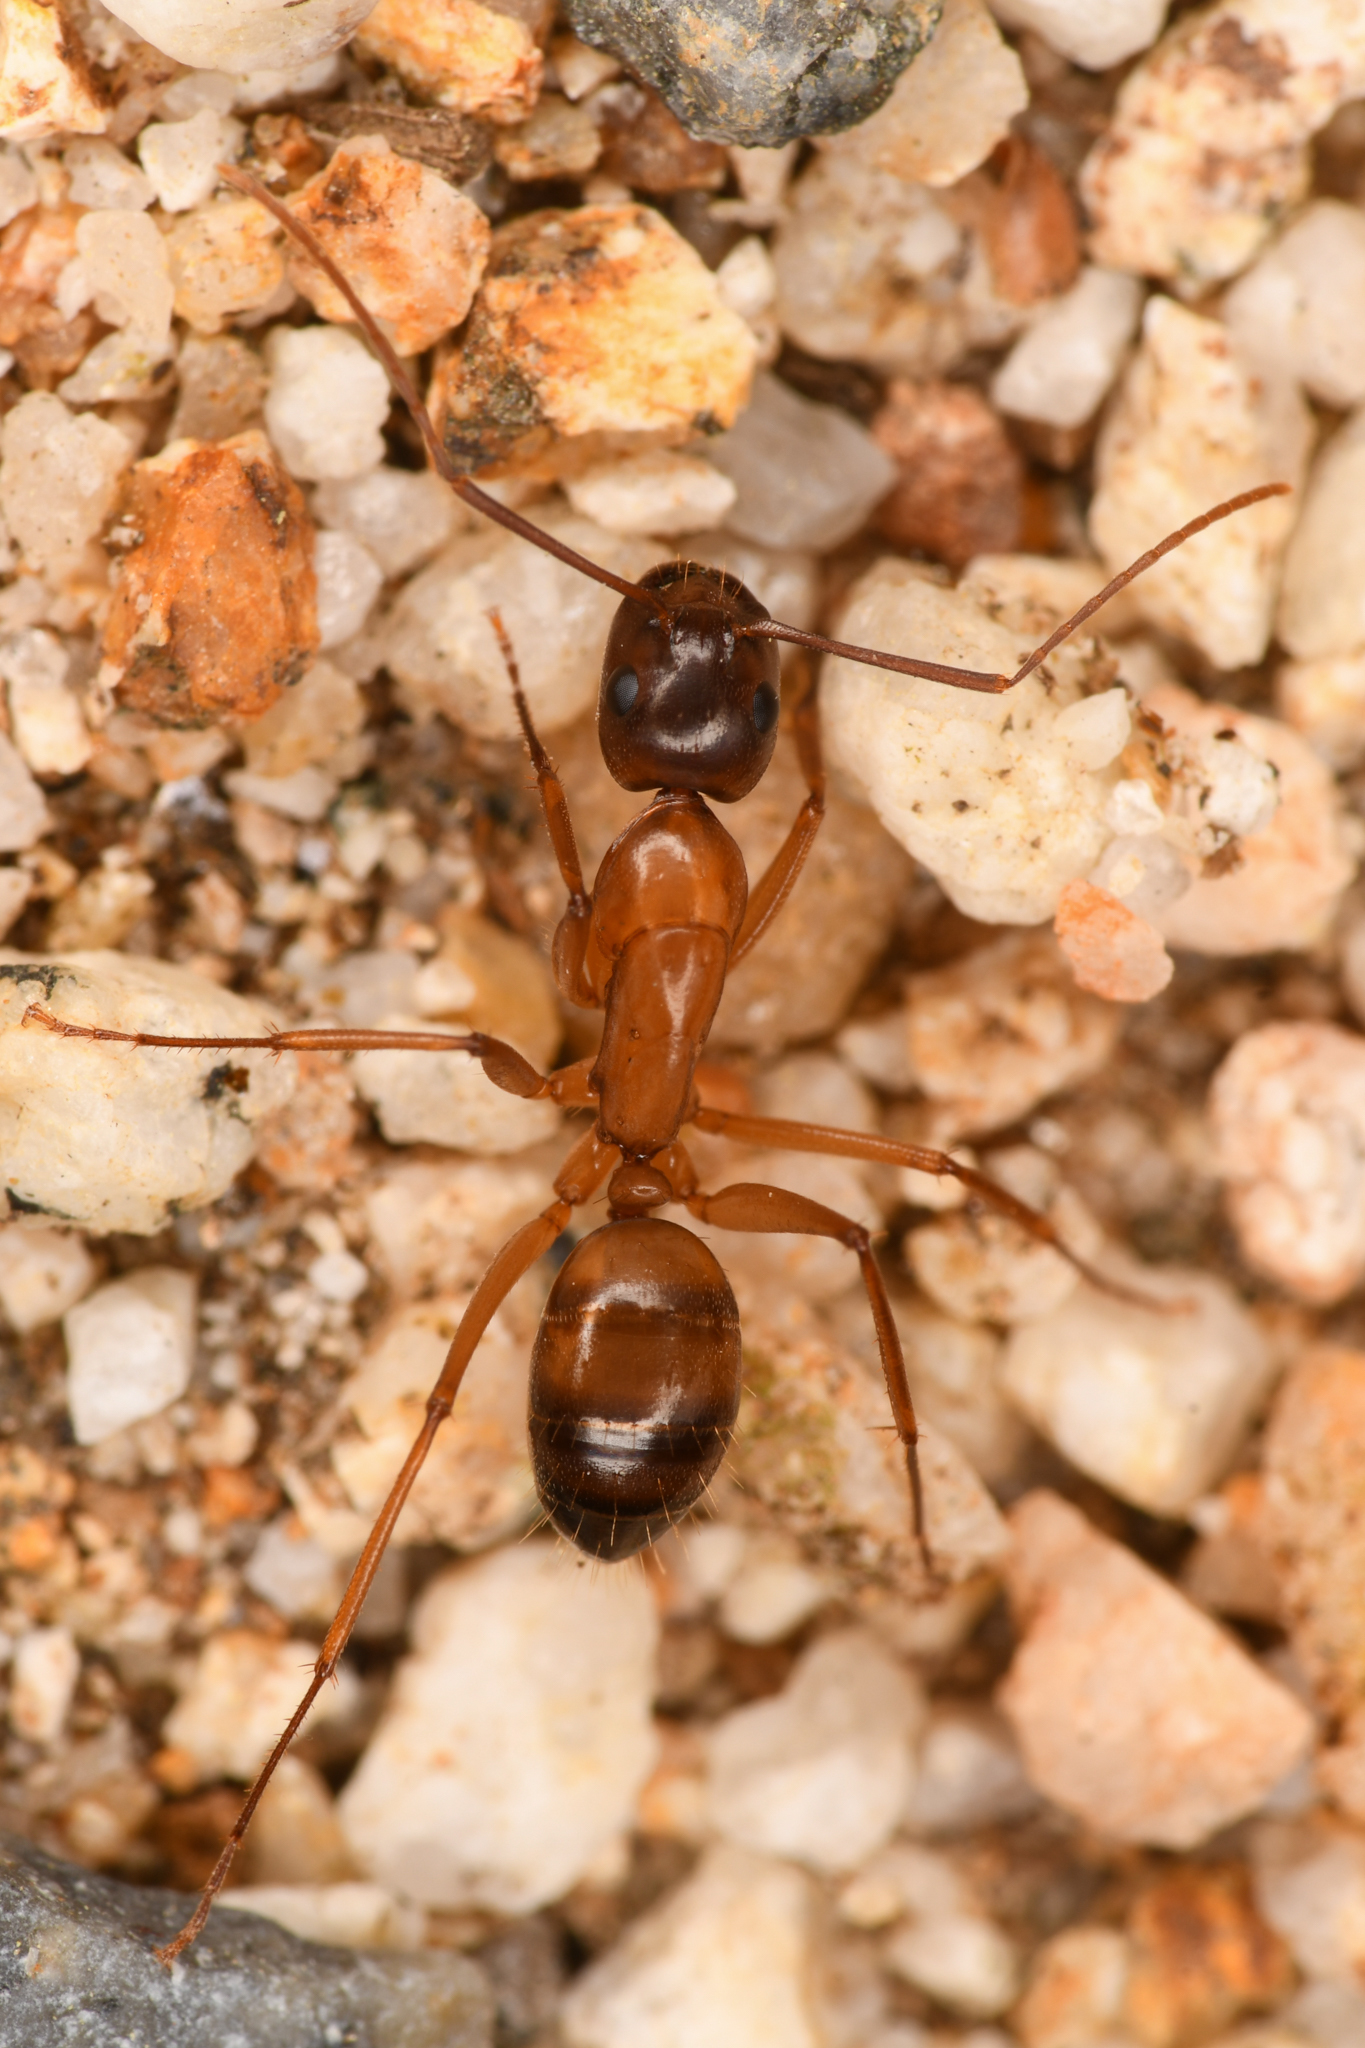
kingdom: Animalia
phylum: Arthropoda
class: Insecta
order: Hymenoptera
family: Formicidae
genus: Camponotus
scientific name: Camponotus semitestaceus
